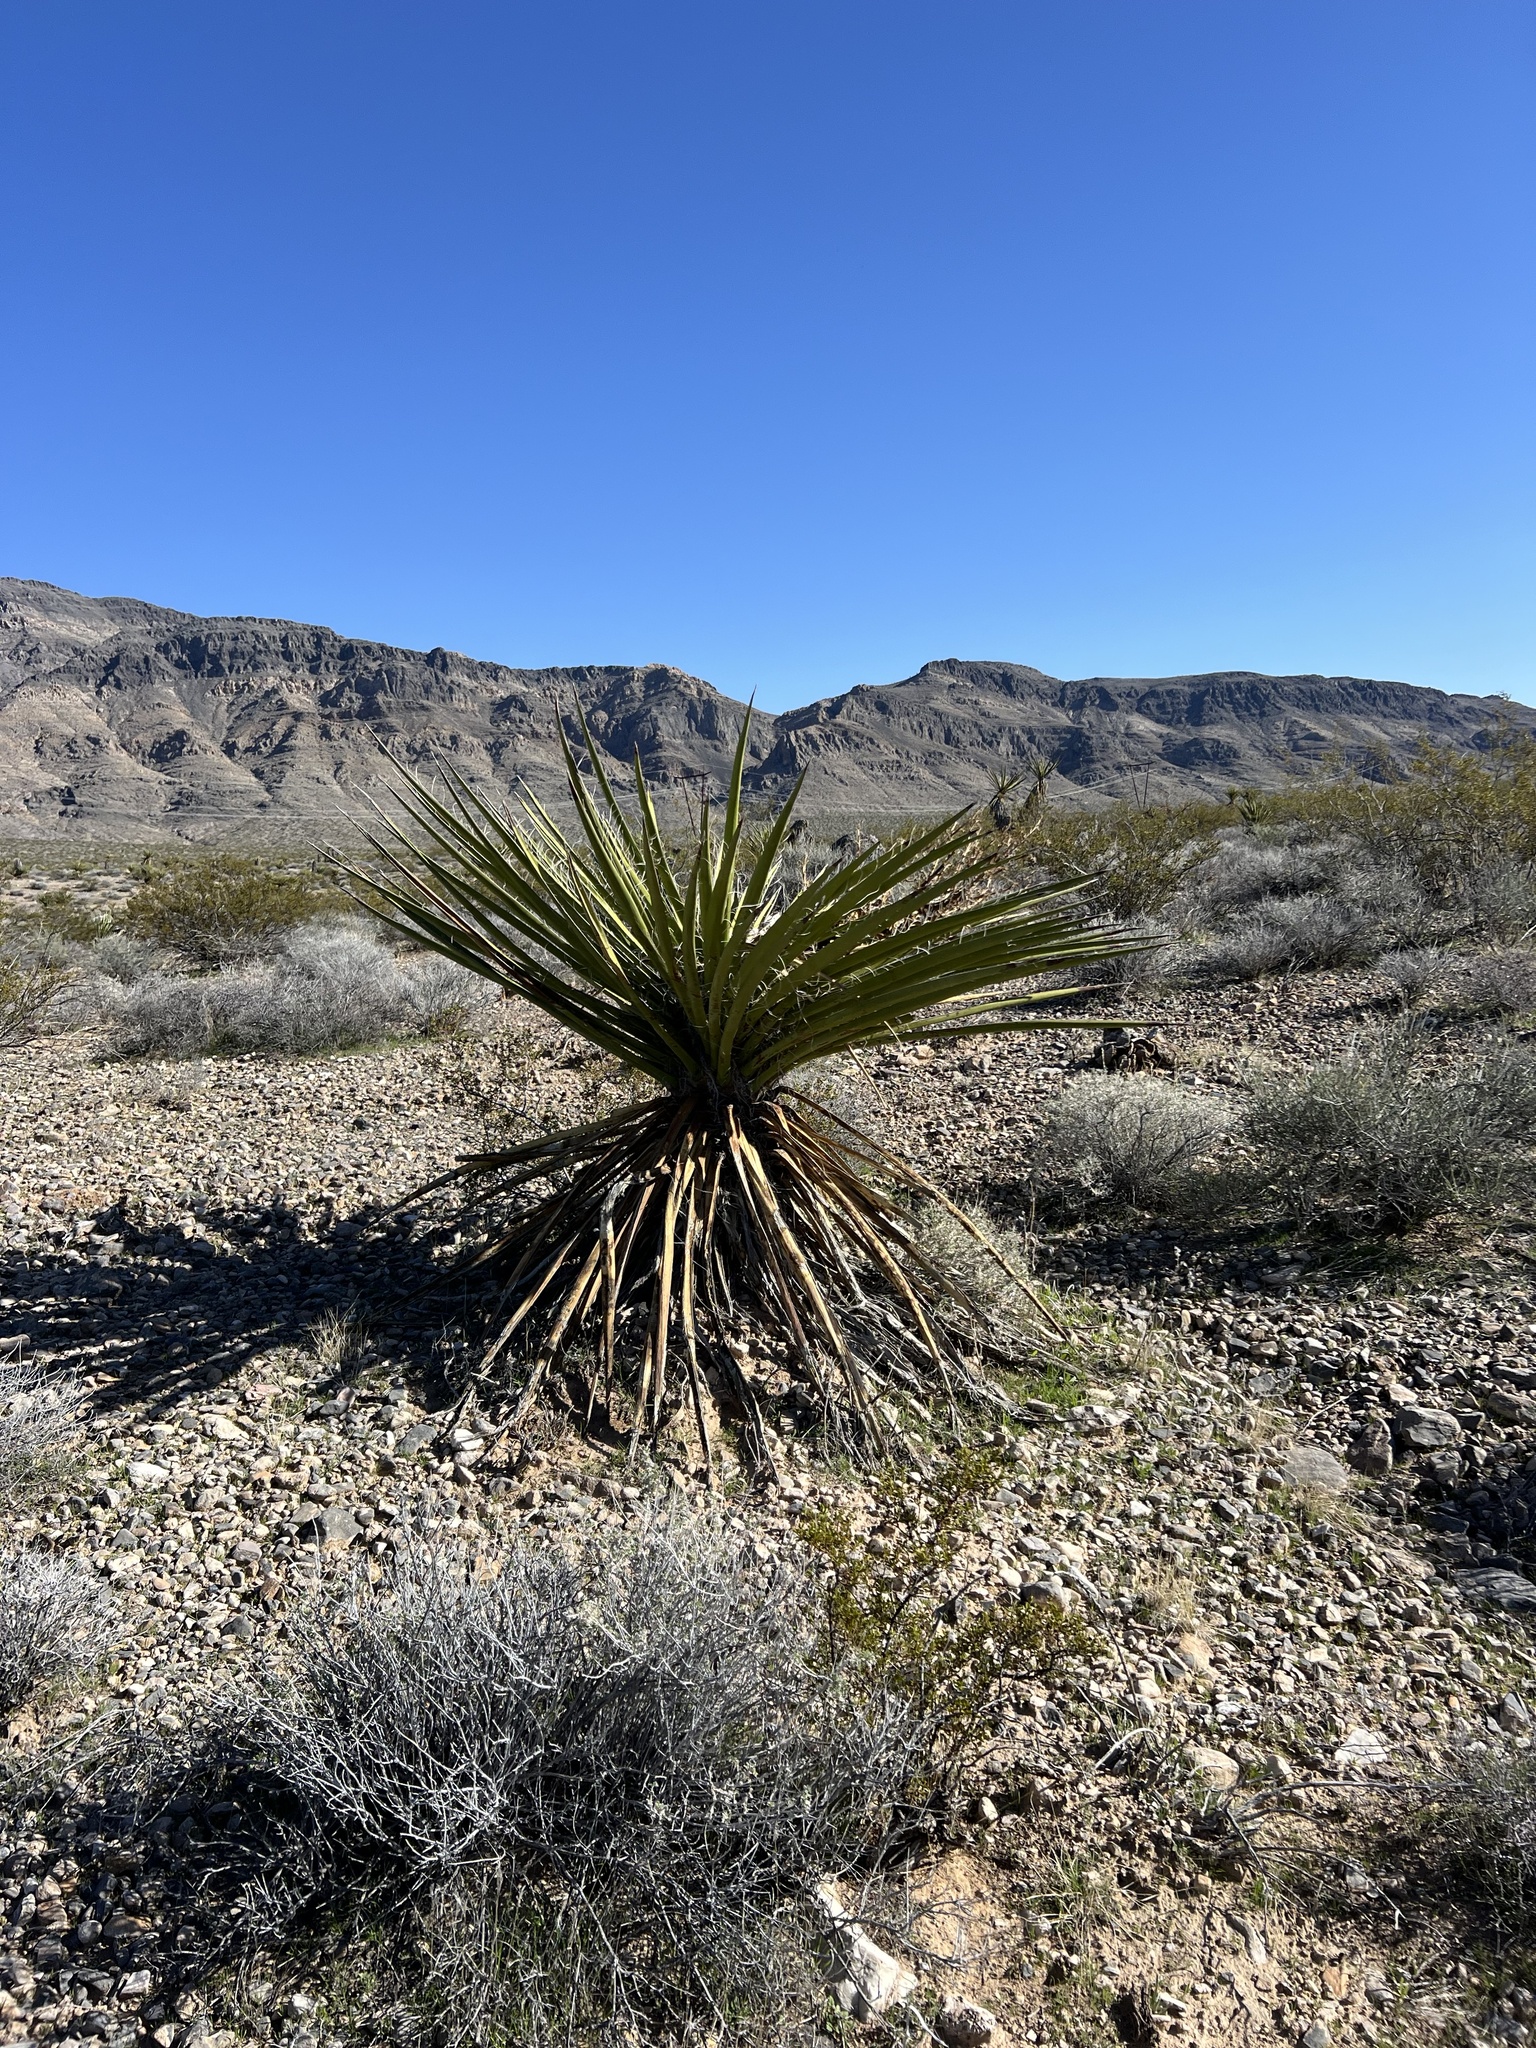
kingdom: Plantae
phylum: Tracheophyta
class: Liliopsida
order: Asparagales
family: Asparagaceae
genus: Yucca
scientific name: Yucca schidigera
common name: Mojave yucca
